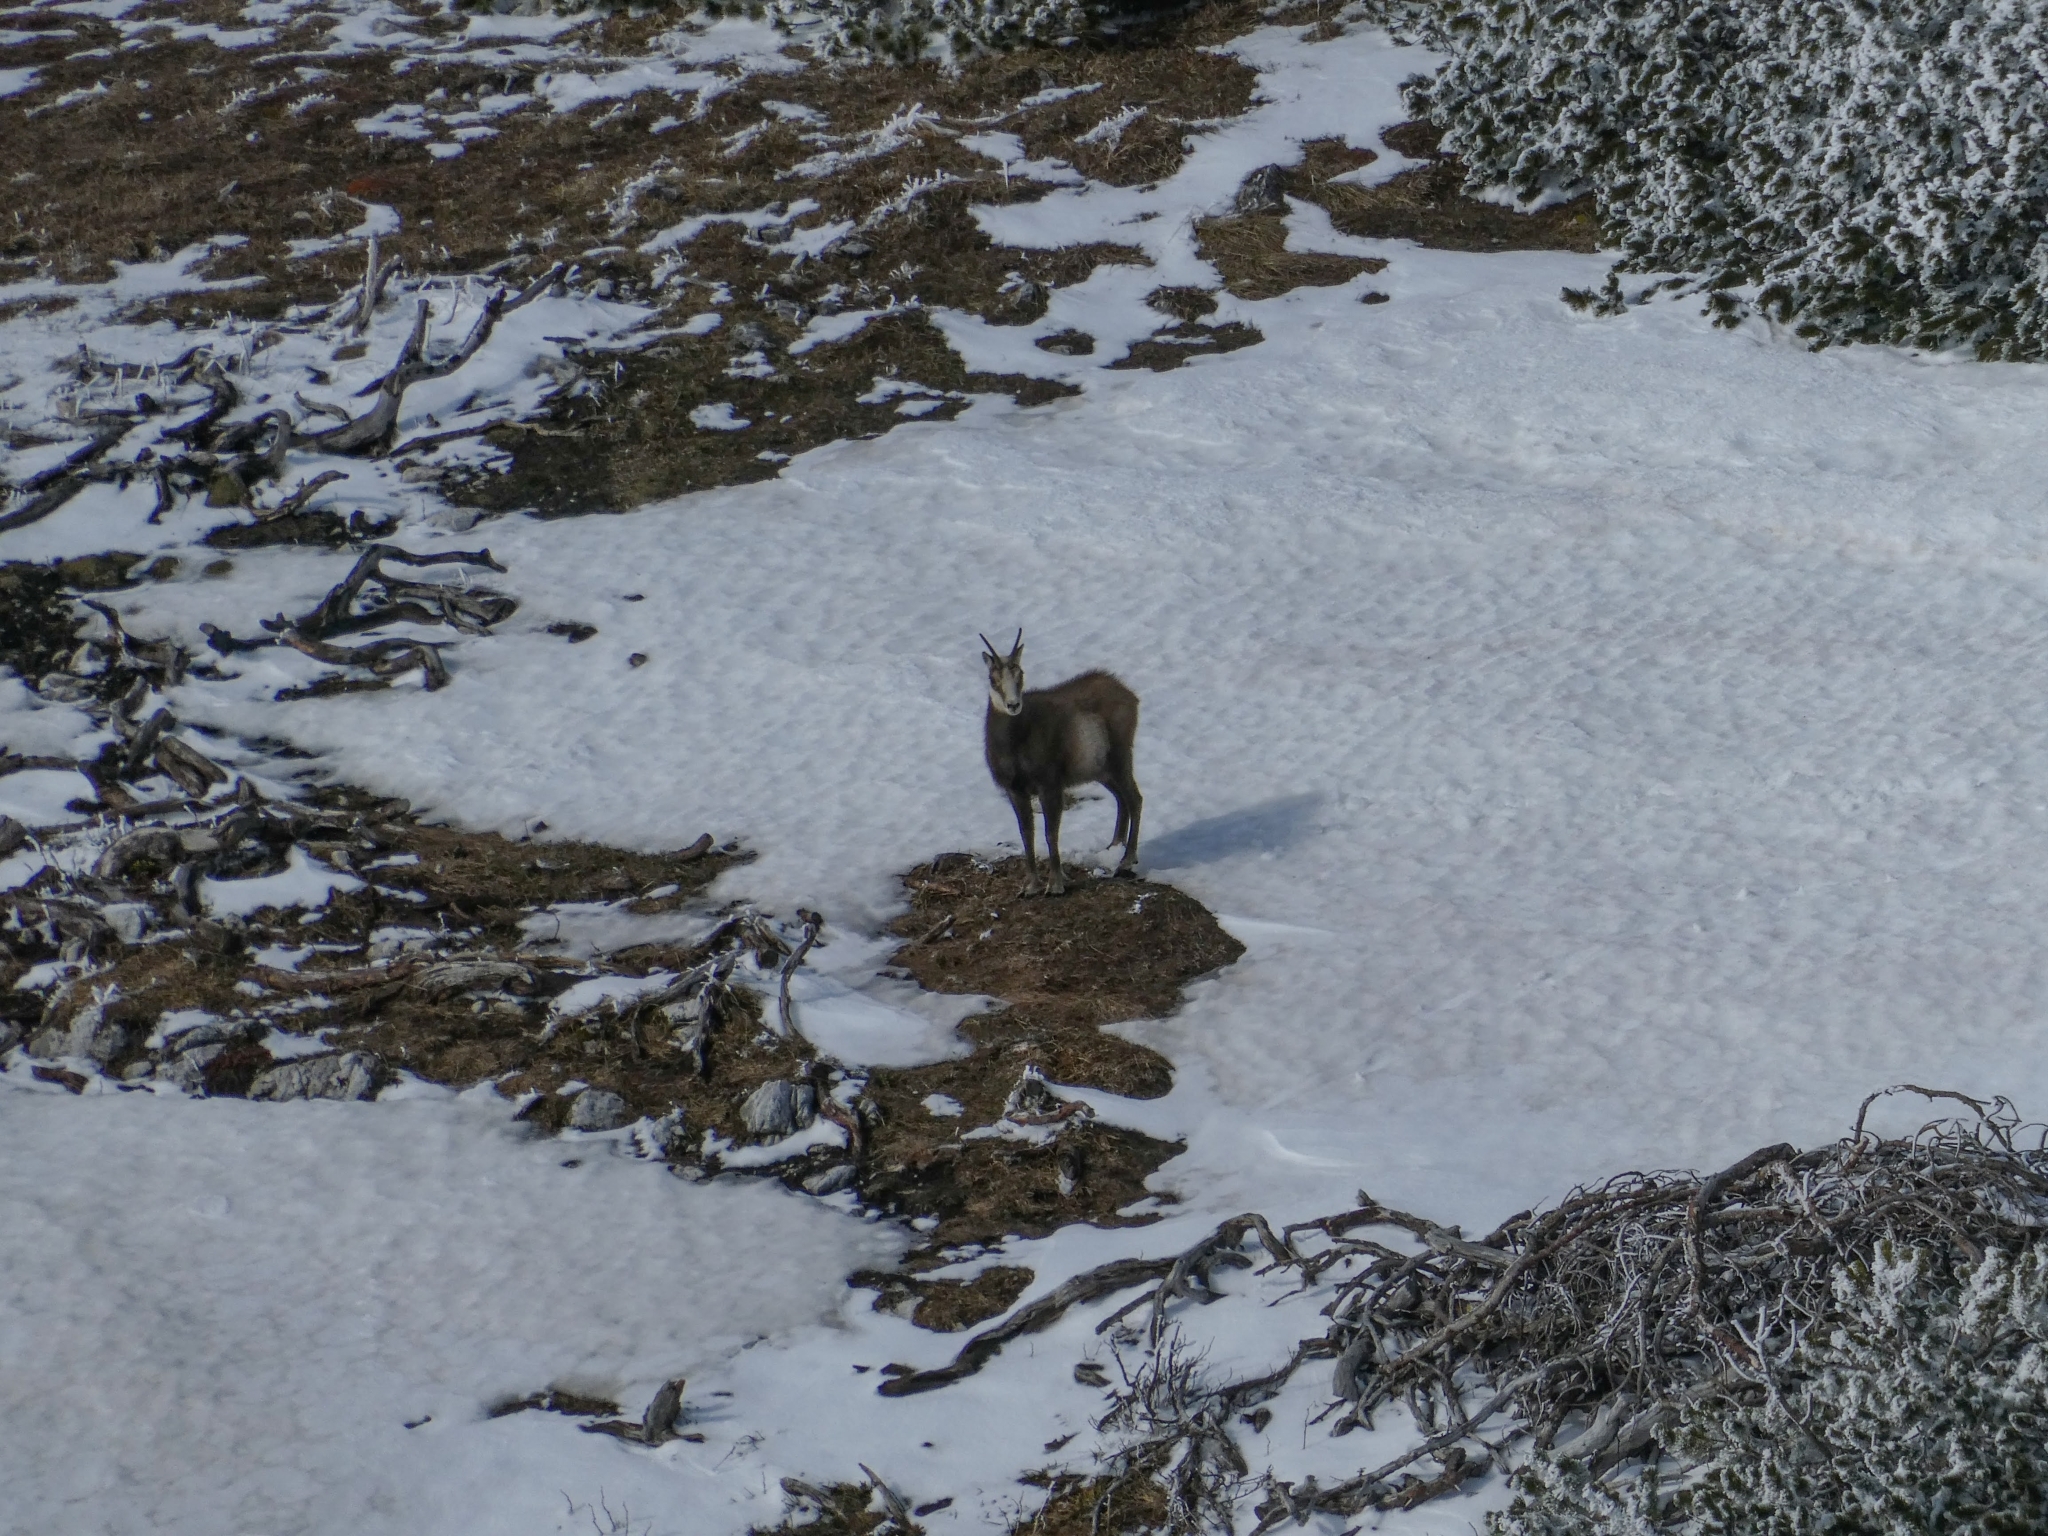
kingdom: Animalia
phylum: Chordata
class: Mammalia
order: Artiodactyla
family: Bovidae
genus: Rupicapra
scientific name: Rupicapra rupicapra
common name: Chamois
